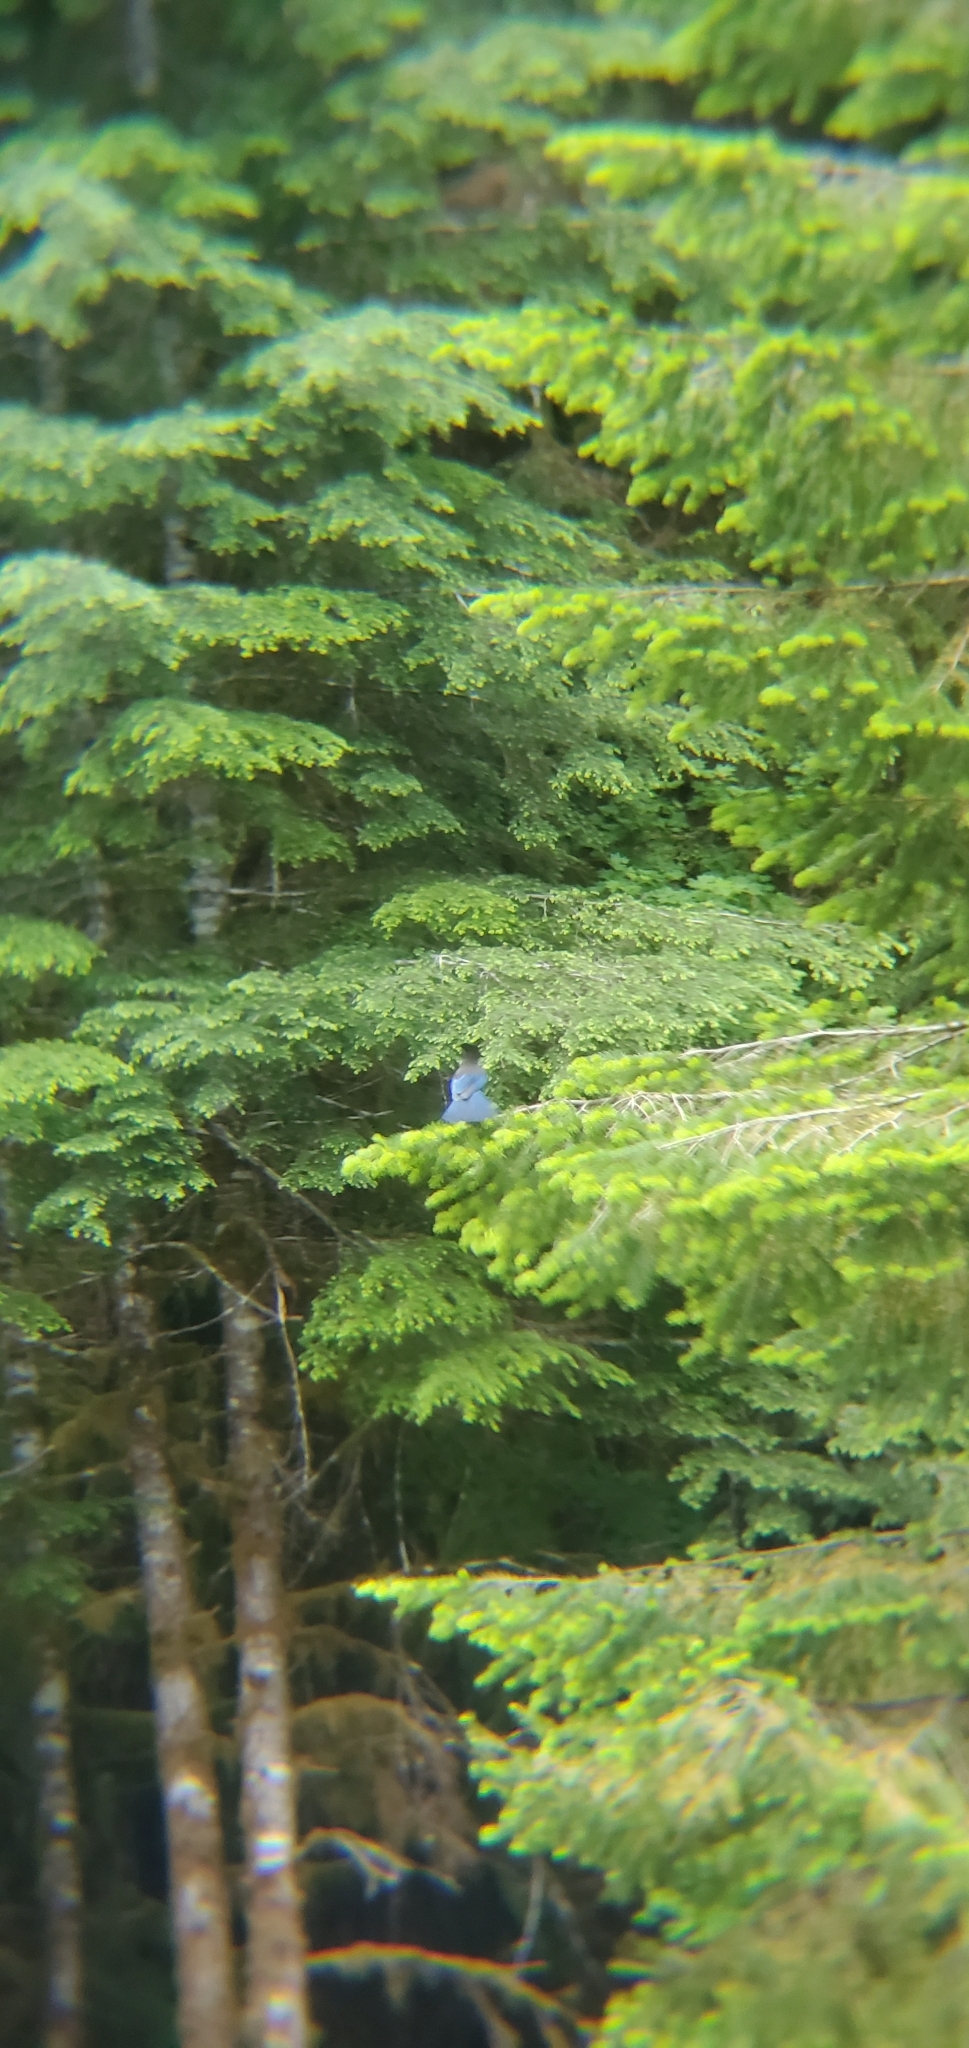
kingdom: Animalia
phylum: Chordata
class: Aves
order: Passeriformes
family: Corvidae
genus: Cyanocitta
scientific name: Cyanocitta stelleri
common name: Steller's jay
